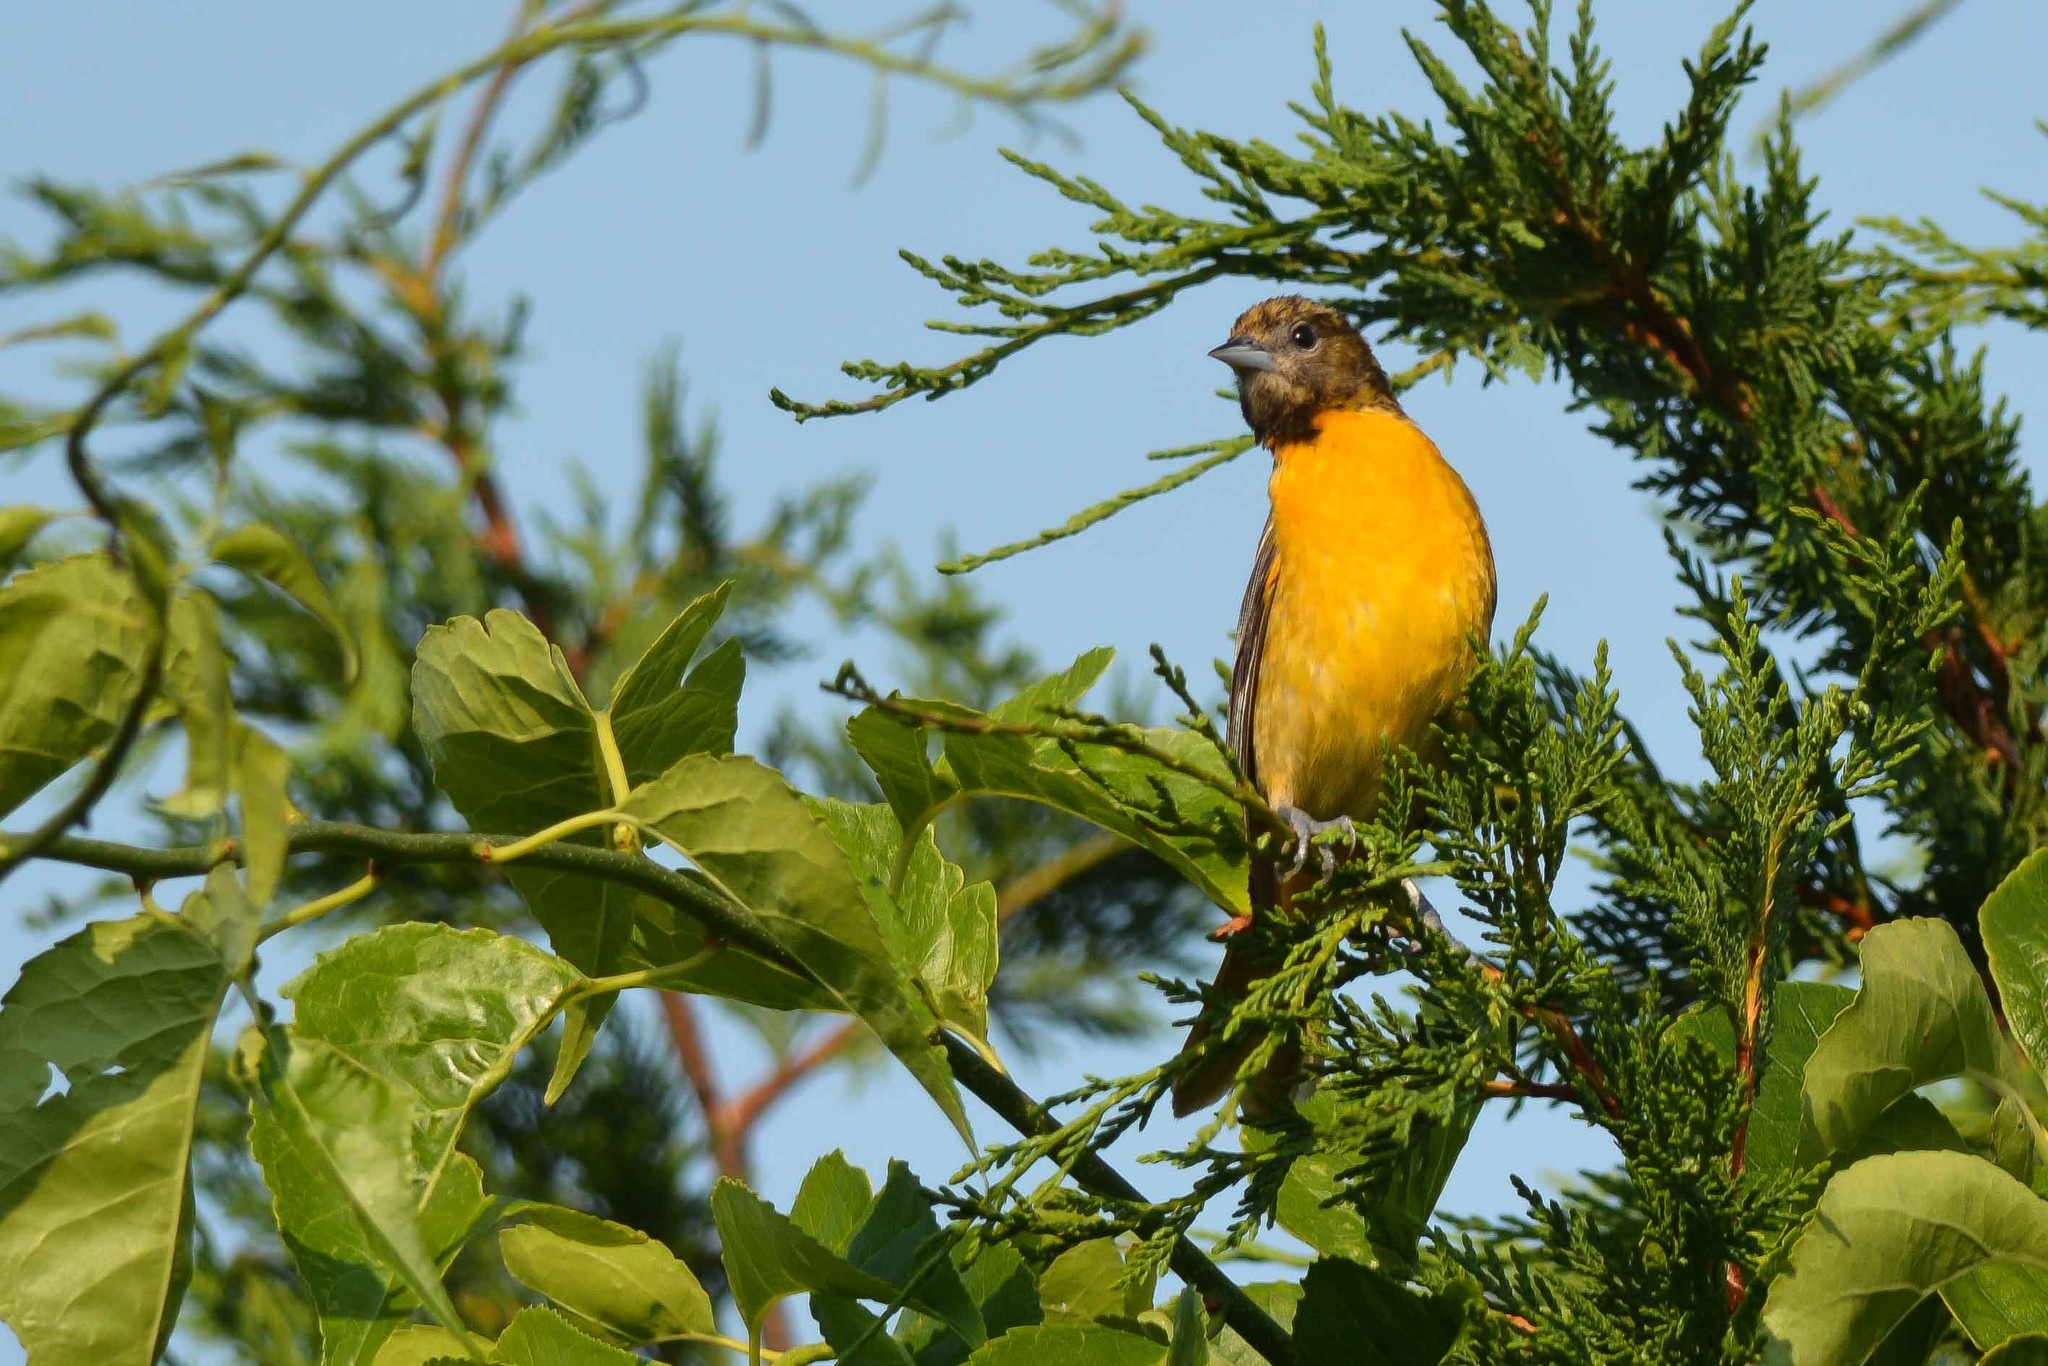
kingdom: Animalia
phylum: Chordata
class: Aves
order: Passeriformes
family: Icteridae
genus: Icterus
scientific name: Icterus galbula
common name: Baltimore oriole
